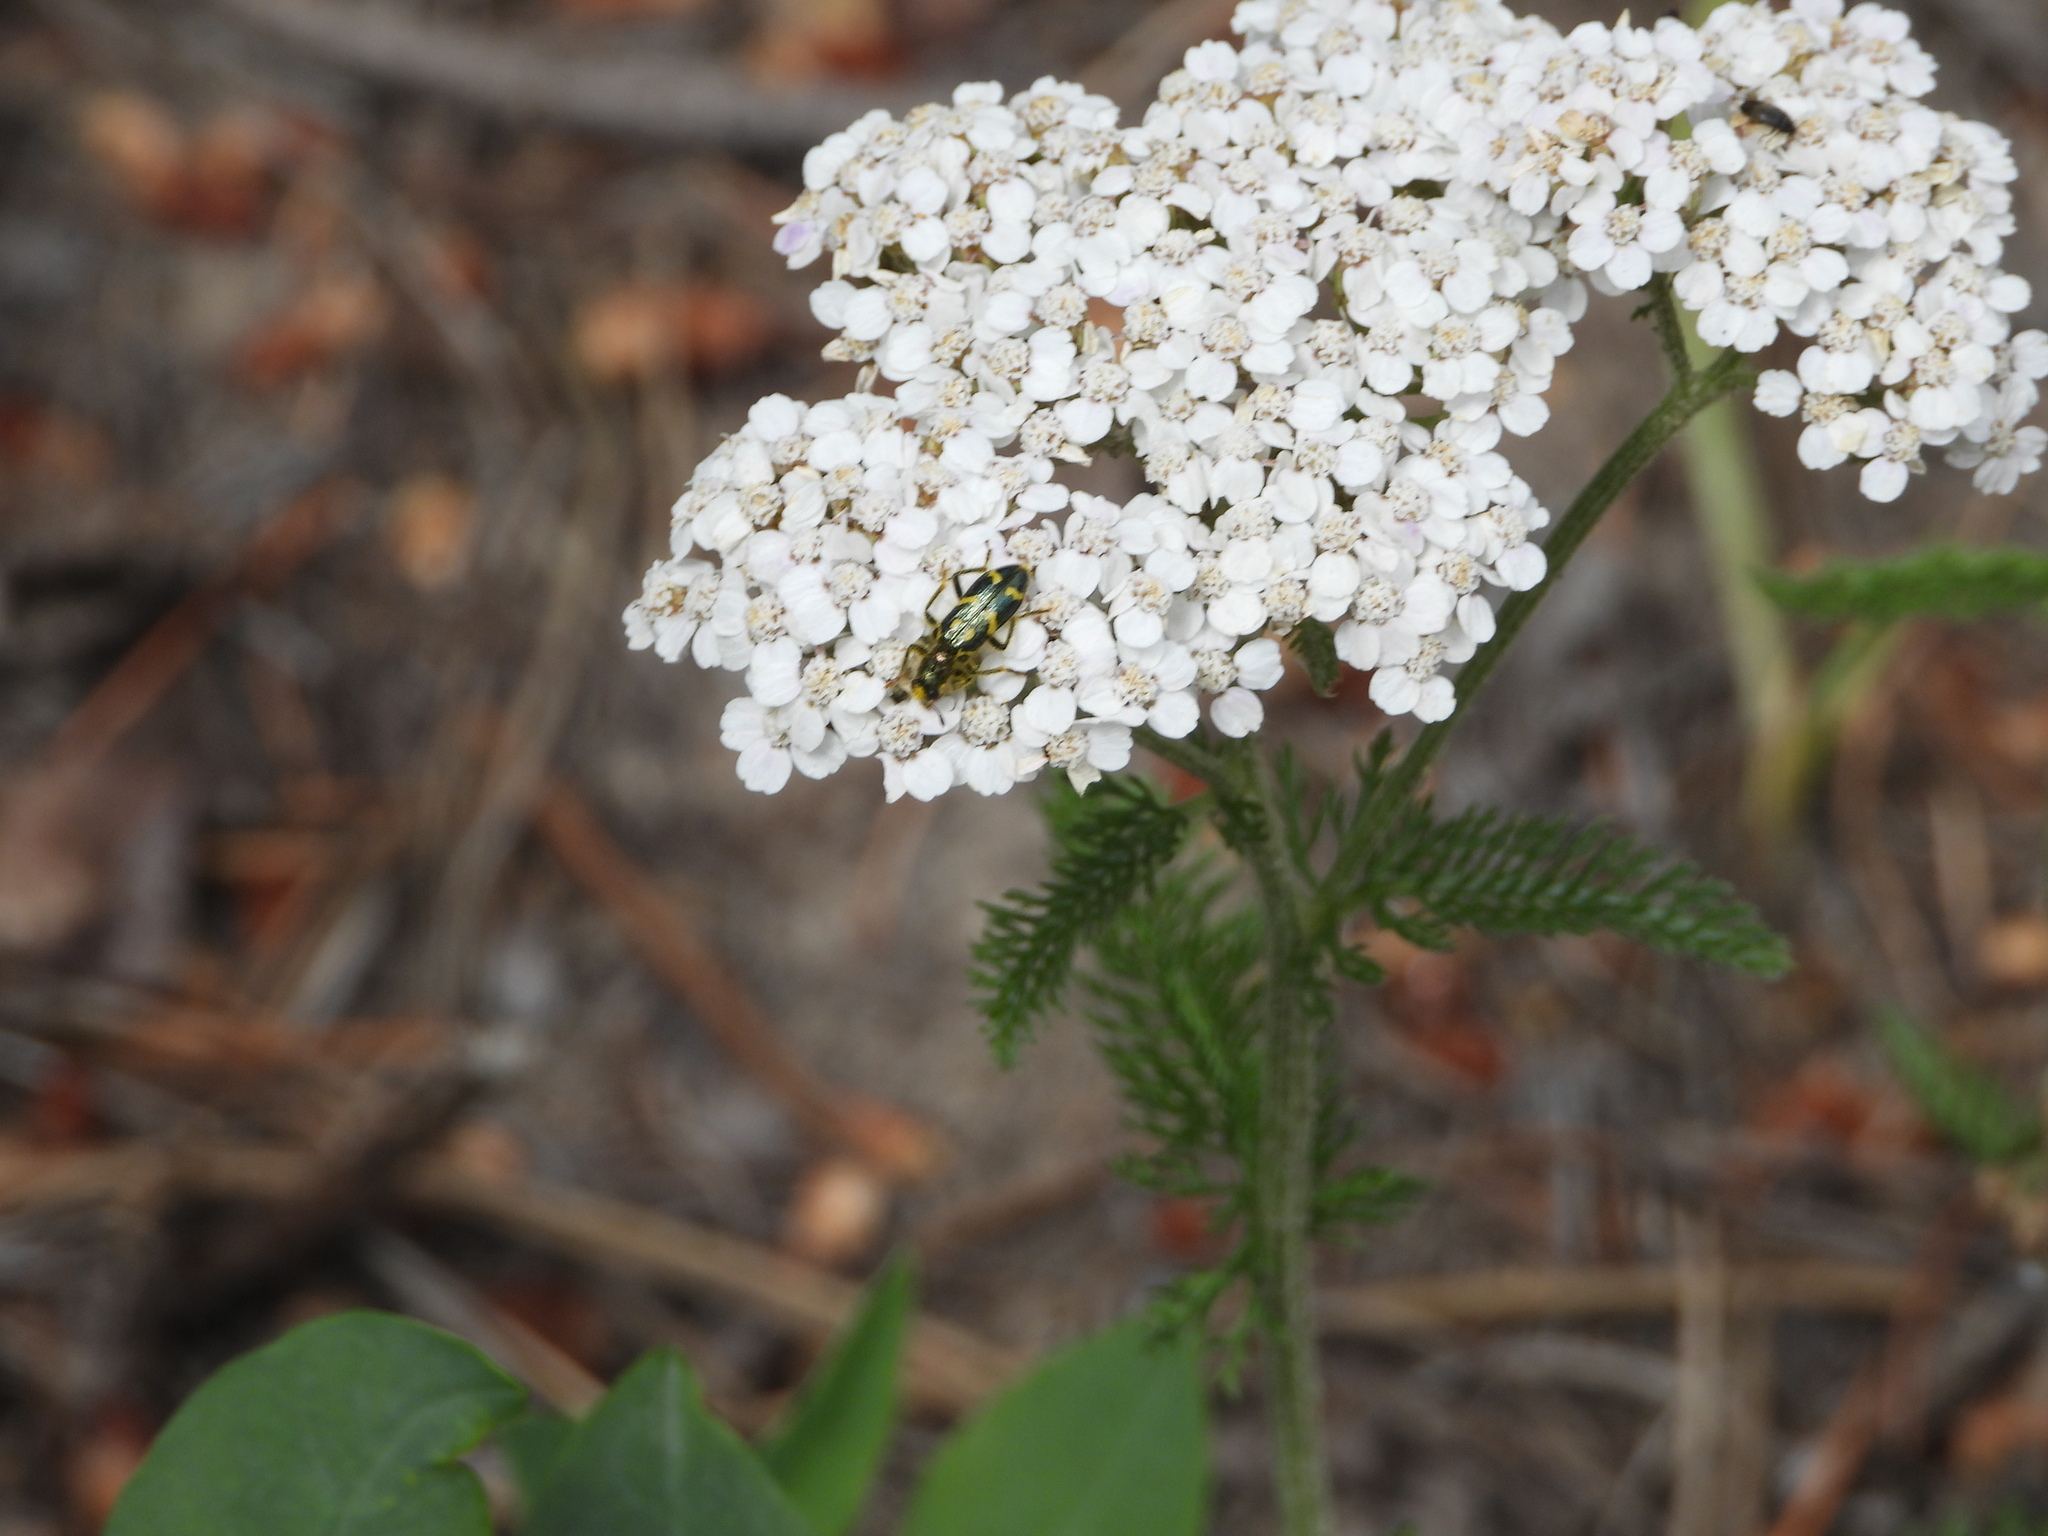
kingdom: Plantae
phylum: Tracheophyta
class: Magnoliopsida
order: Asterales
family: Asteraceae
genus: Achillea
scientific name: Achillea millefolium
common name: Yarrow
